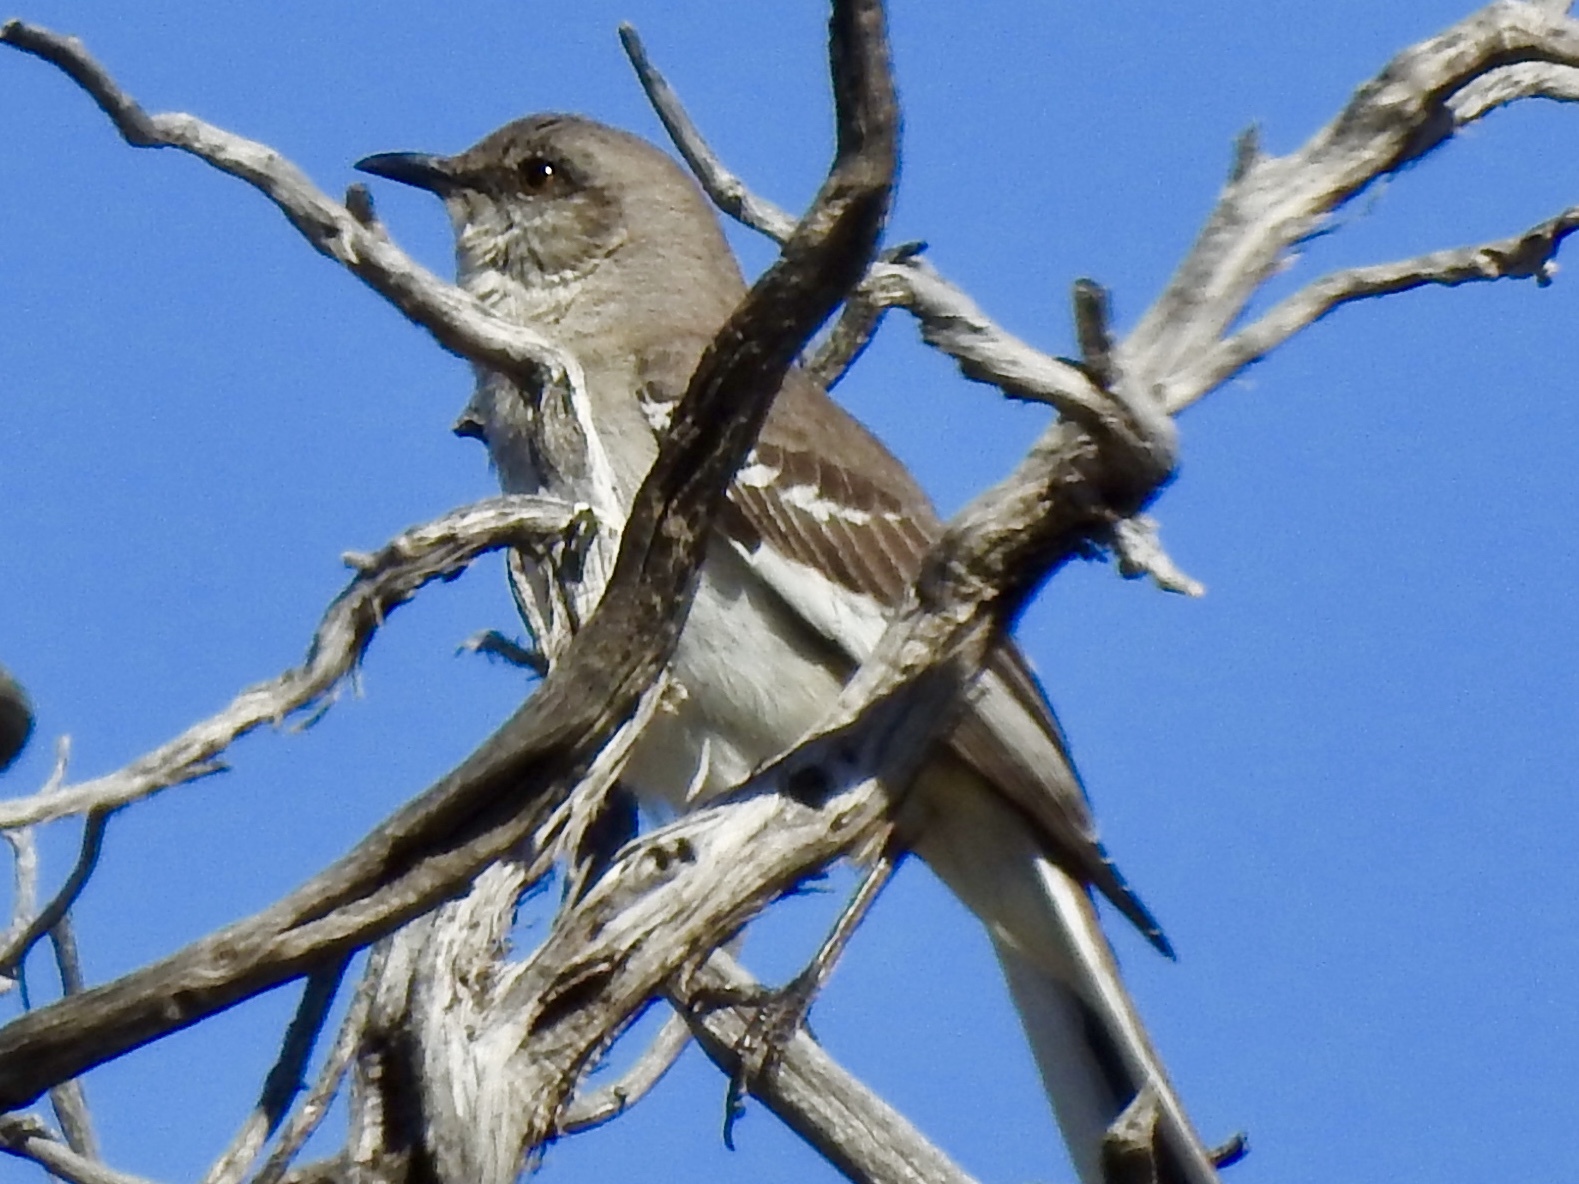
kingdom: Animalia
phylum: Chordata
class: Aves
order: Passeriformes
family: Mimidae
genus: Mimus
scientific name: Mimus polyglottos
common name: Northern mockingbird
